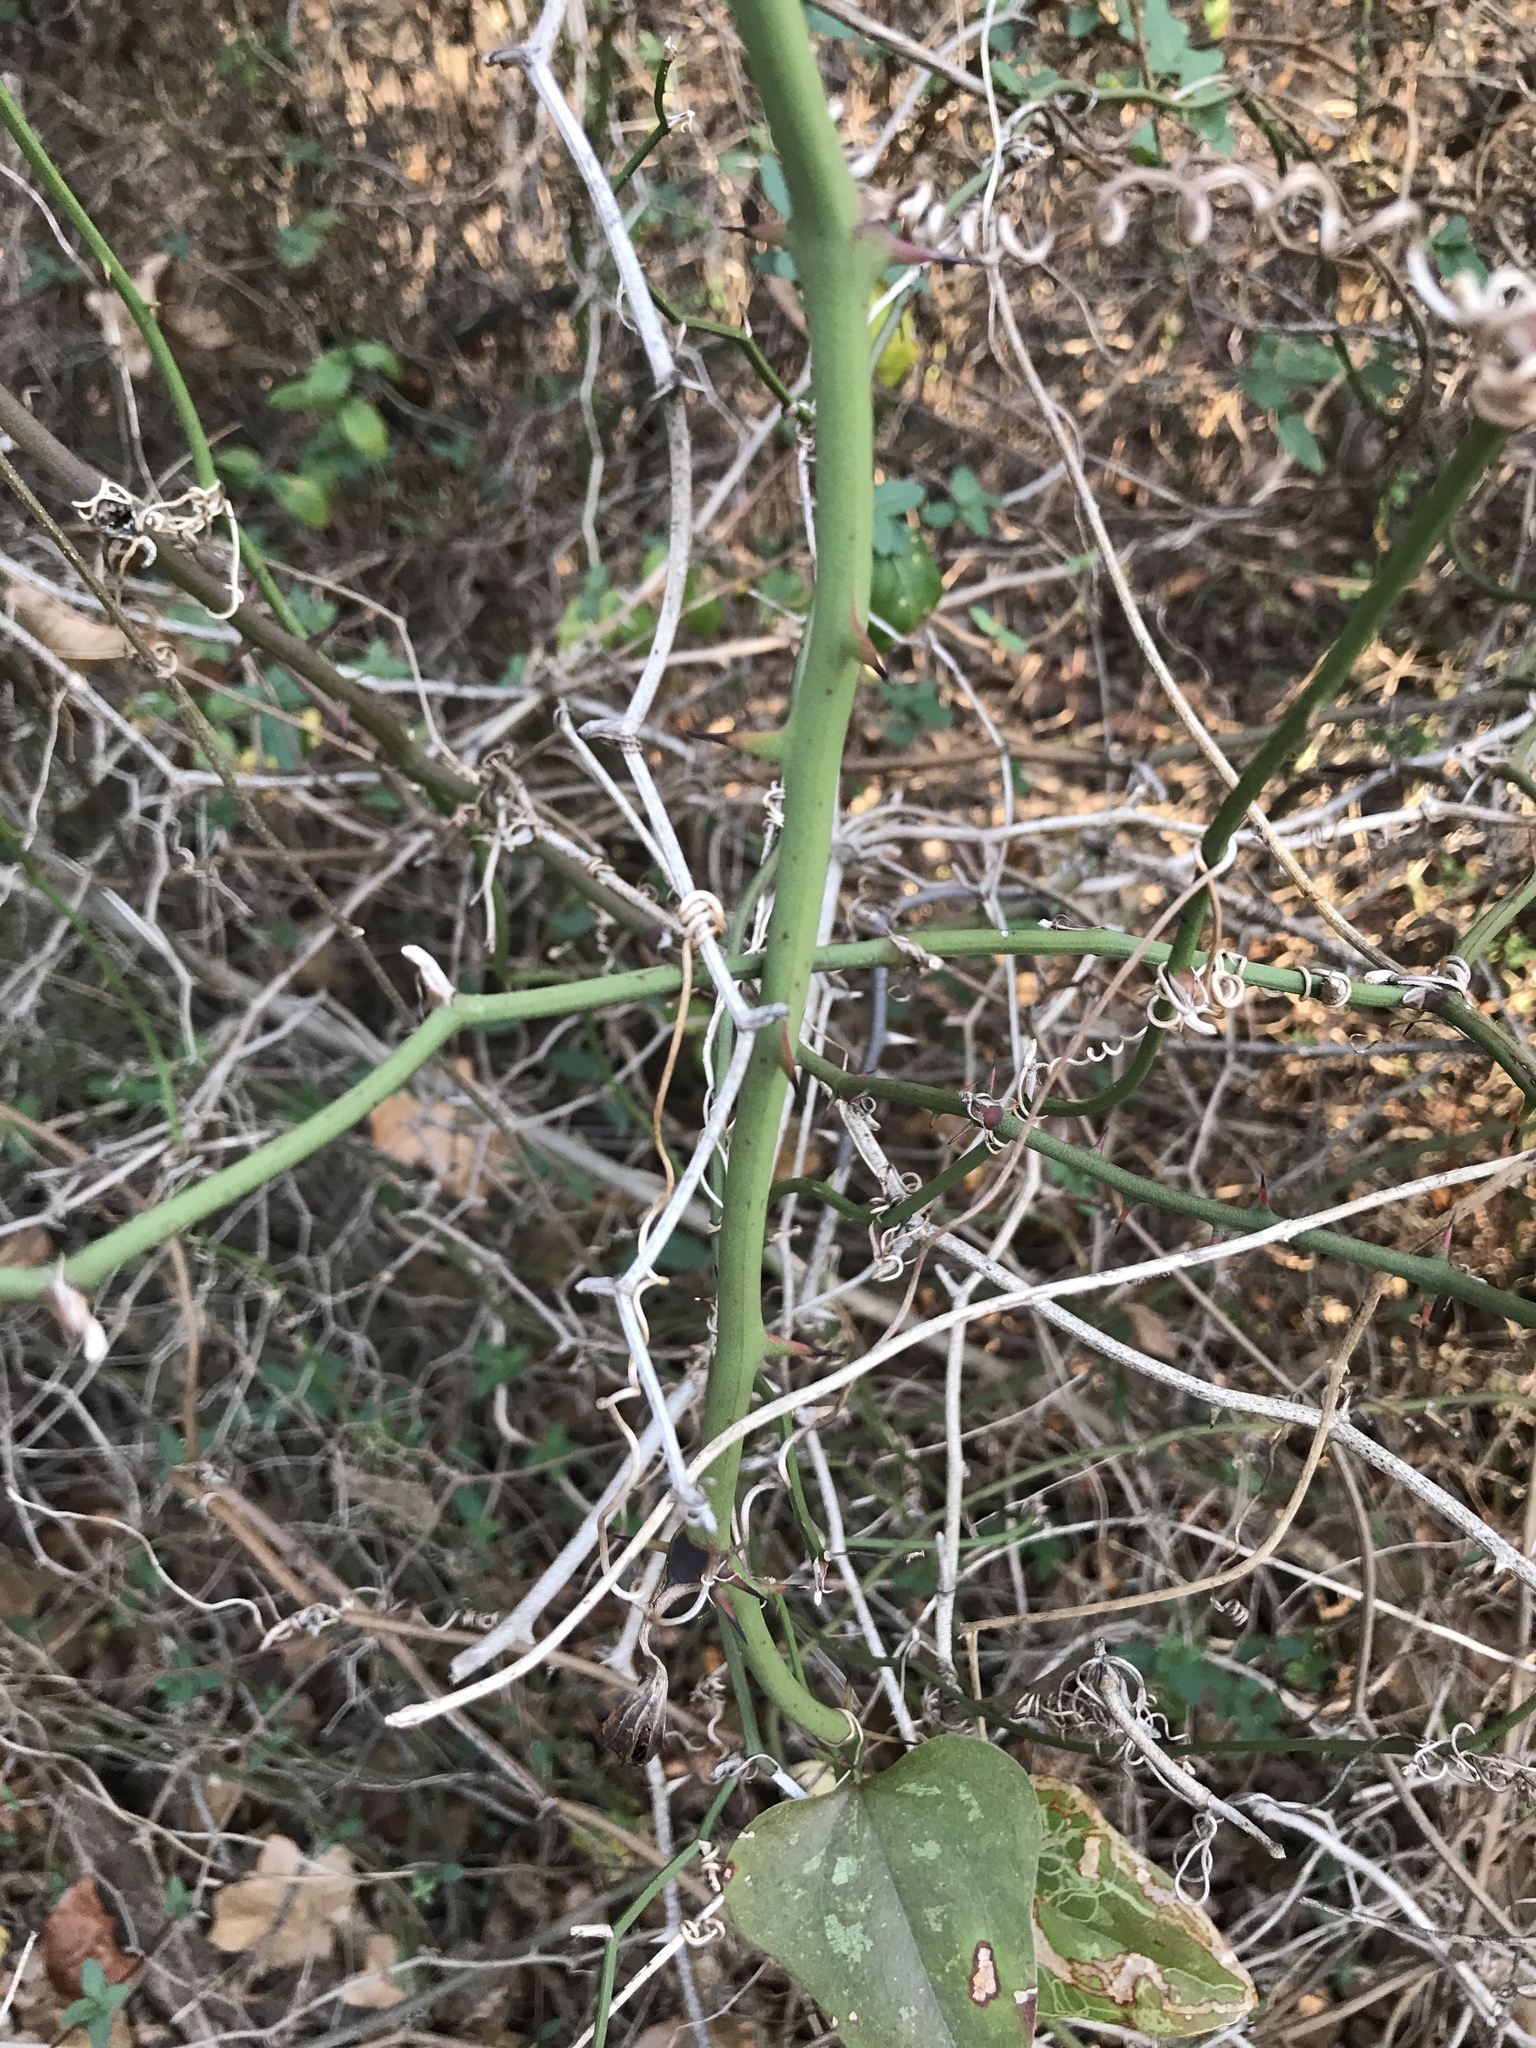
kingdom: Plantae
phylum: Tracheophyta
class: Liliopsida
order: Liliales
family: Smilacaceae
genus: Smilax
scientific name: Smilax bona-nox
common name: Catbrier
